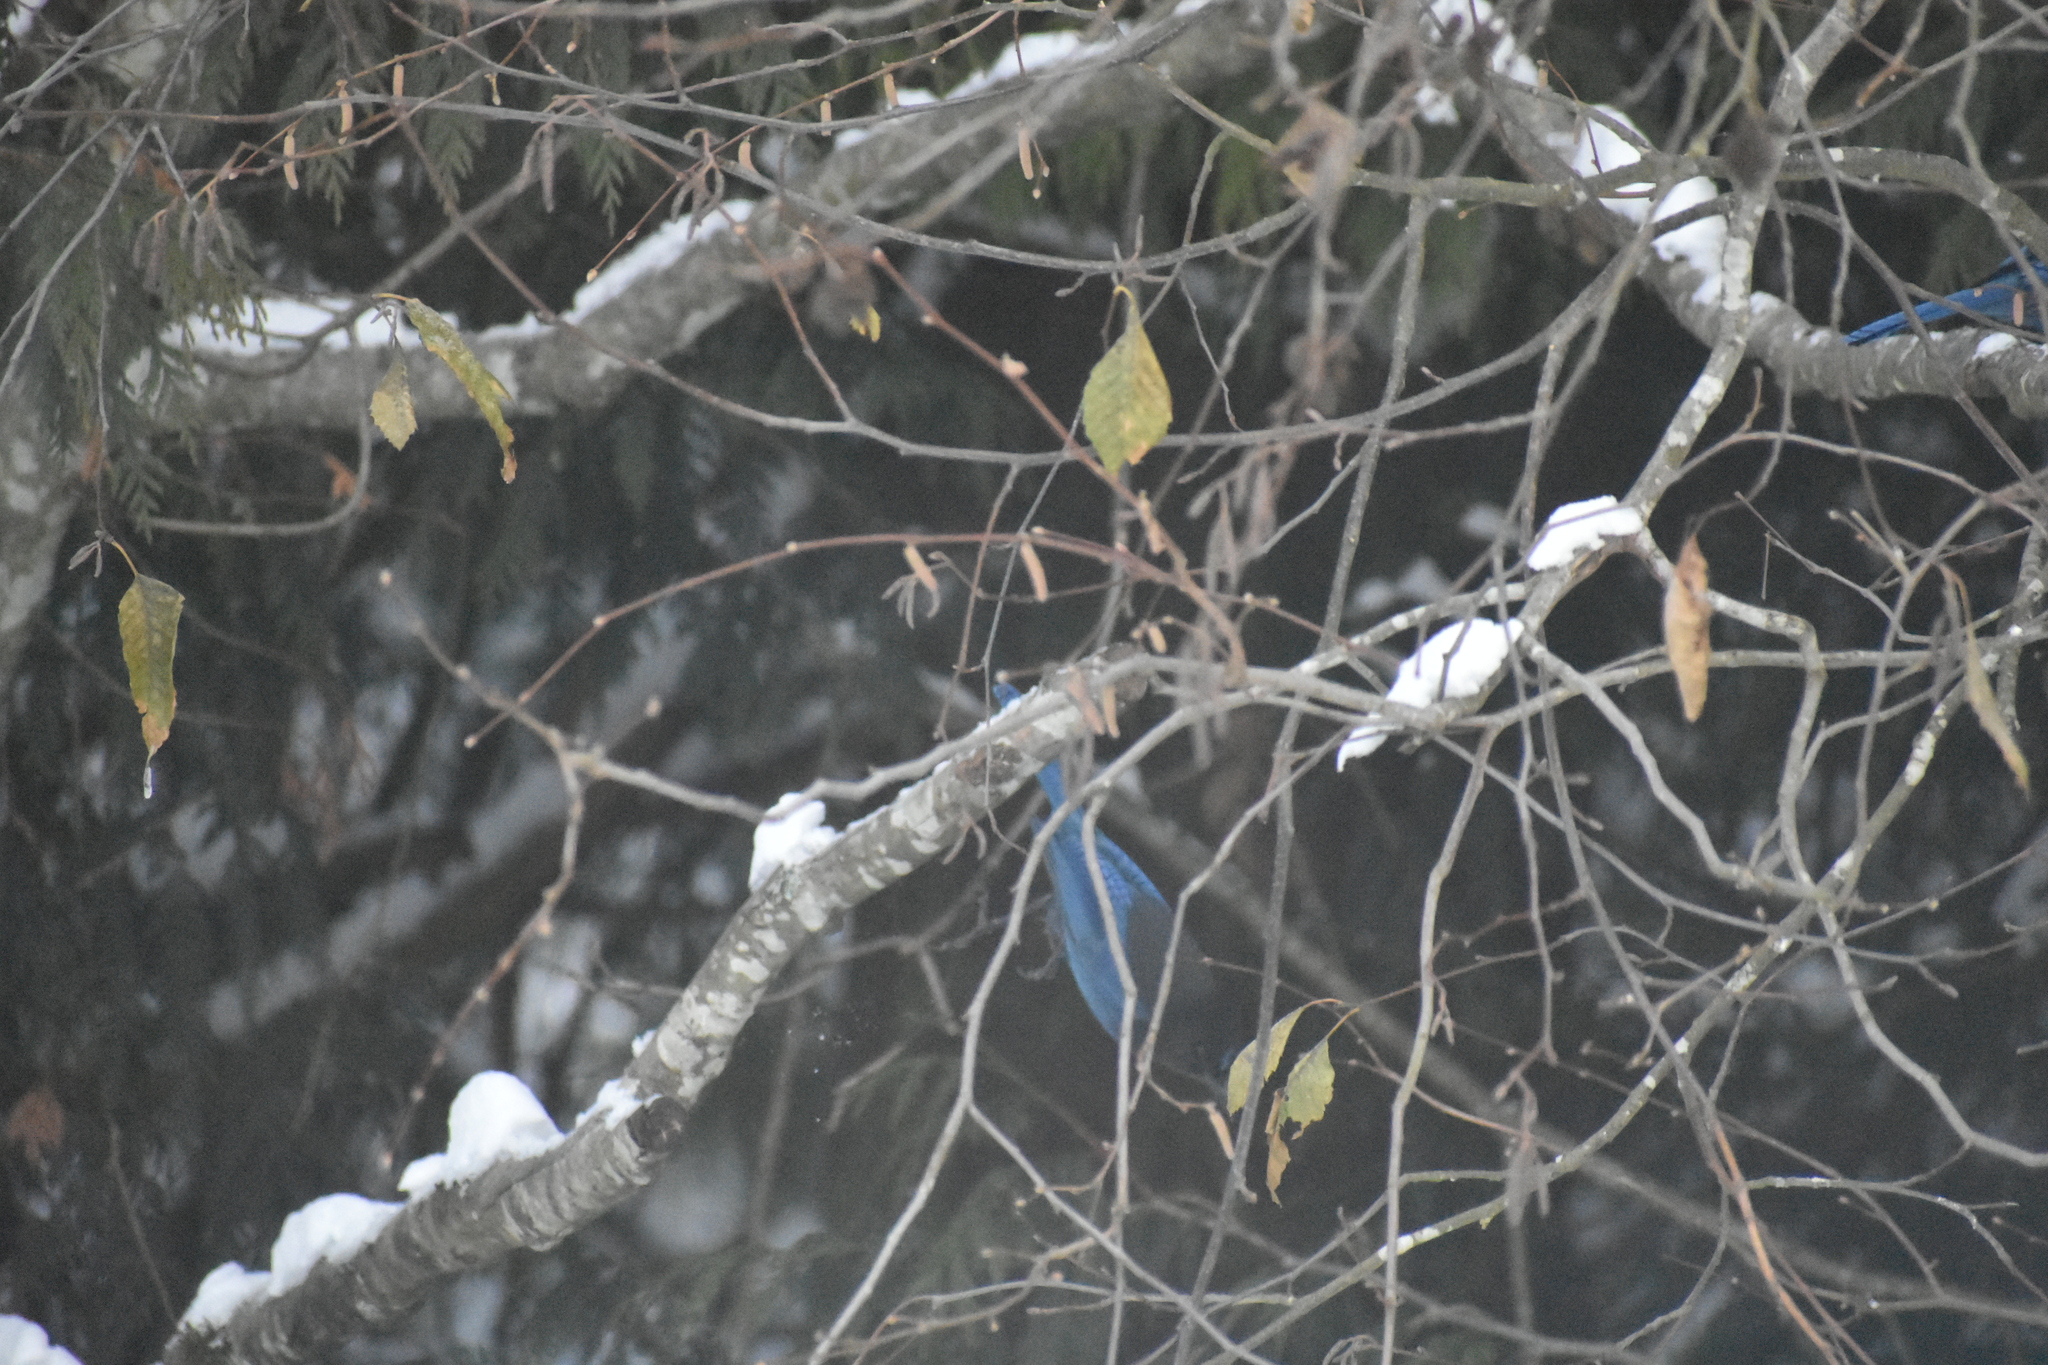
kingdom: Animalia
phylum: Chordata
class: Aves
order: Passeriformes
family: Corvidae
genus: Cyanocitta
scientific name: Cyanocitta stelleri
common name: Steller's jay
